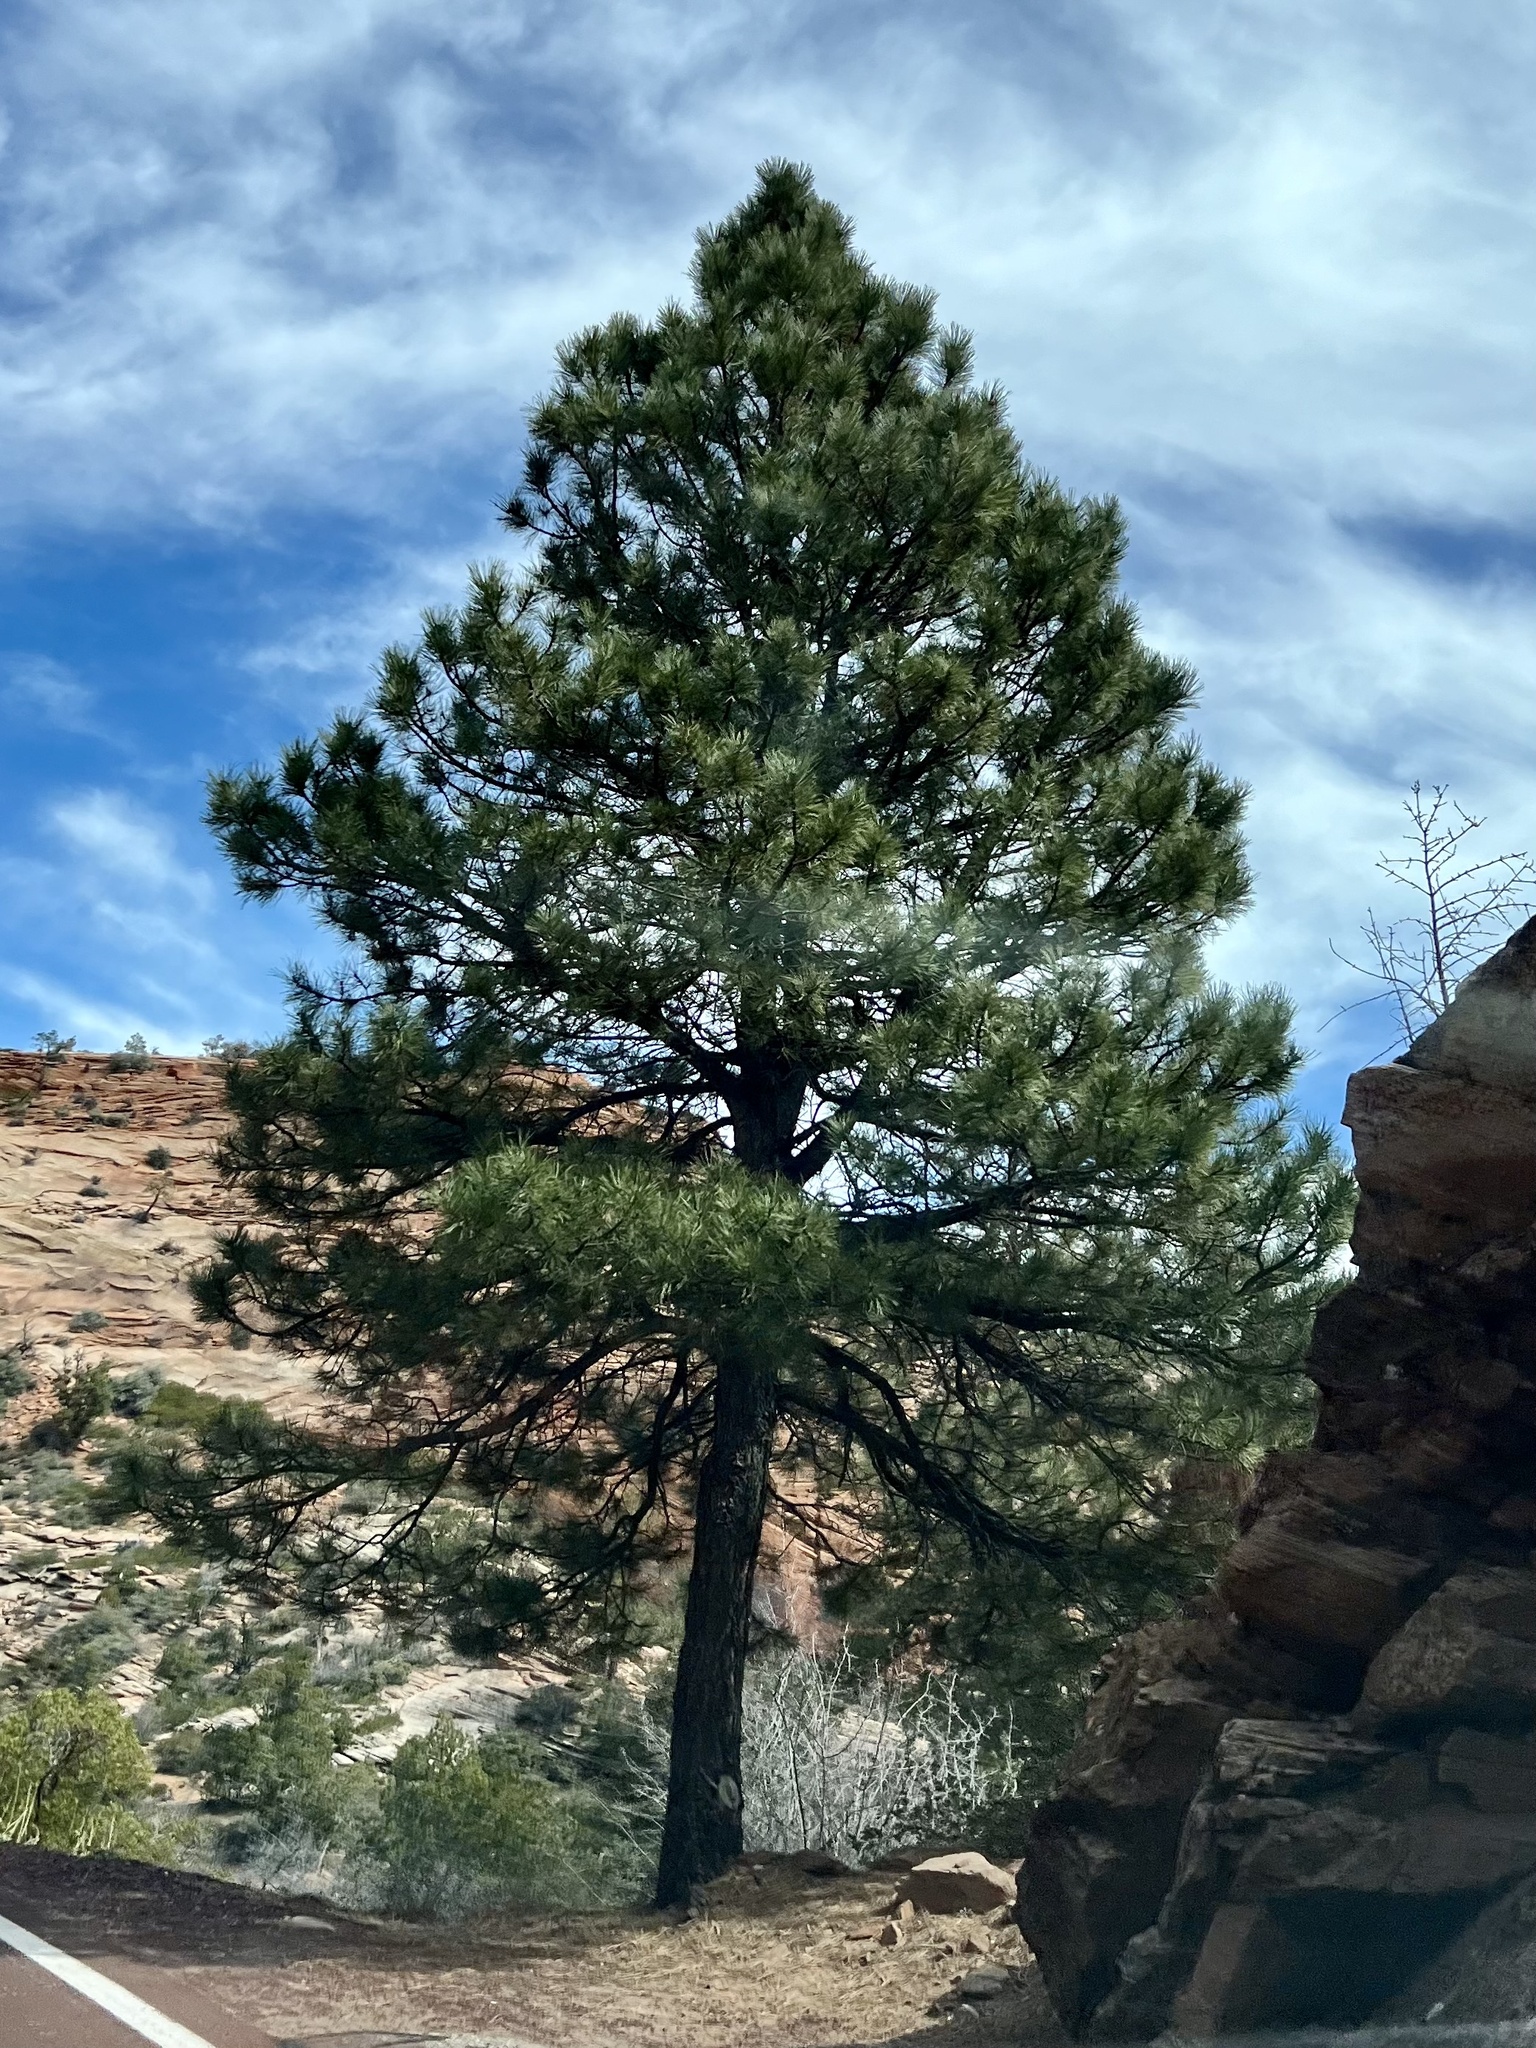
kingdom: Plantae
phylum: Tracheophyta
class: Pinopsida
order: Pinales
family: Pinaceae
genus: Pinus
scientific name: Pinus ponderosa
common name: Western yellow-pine
